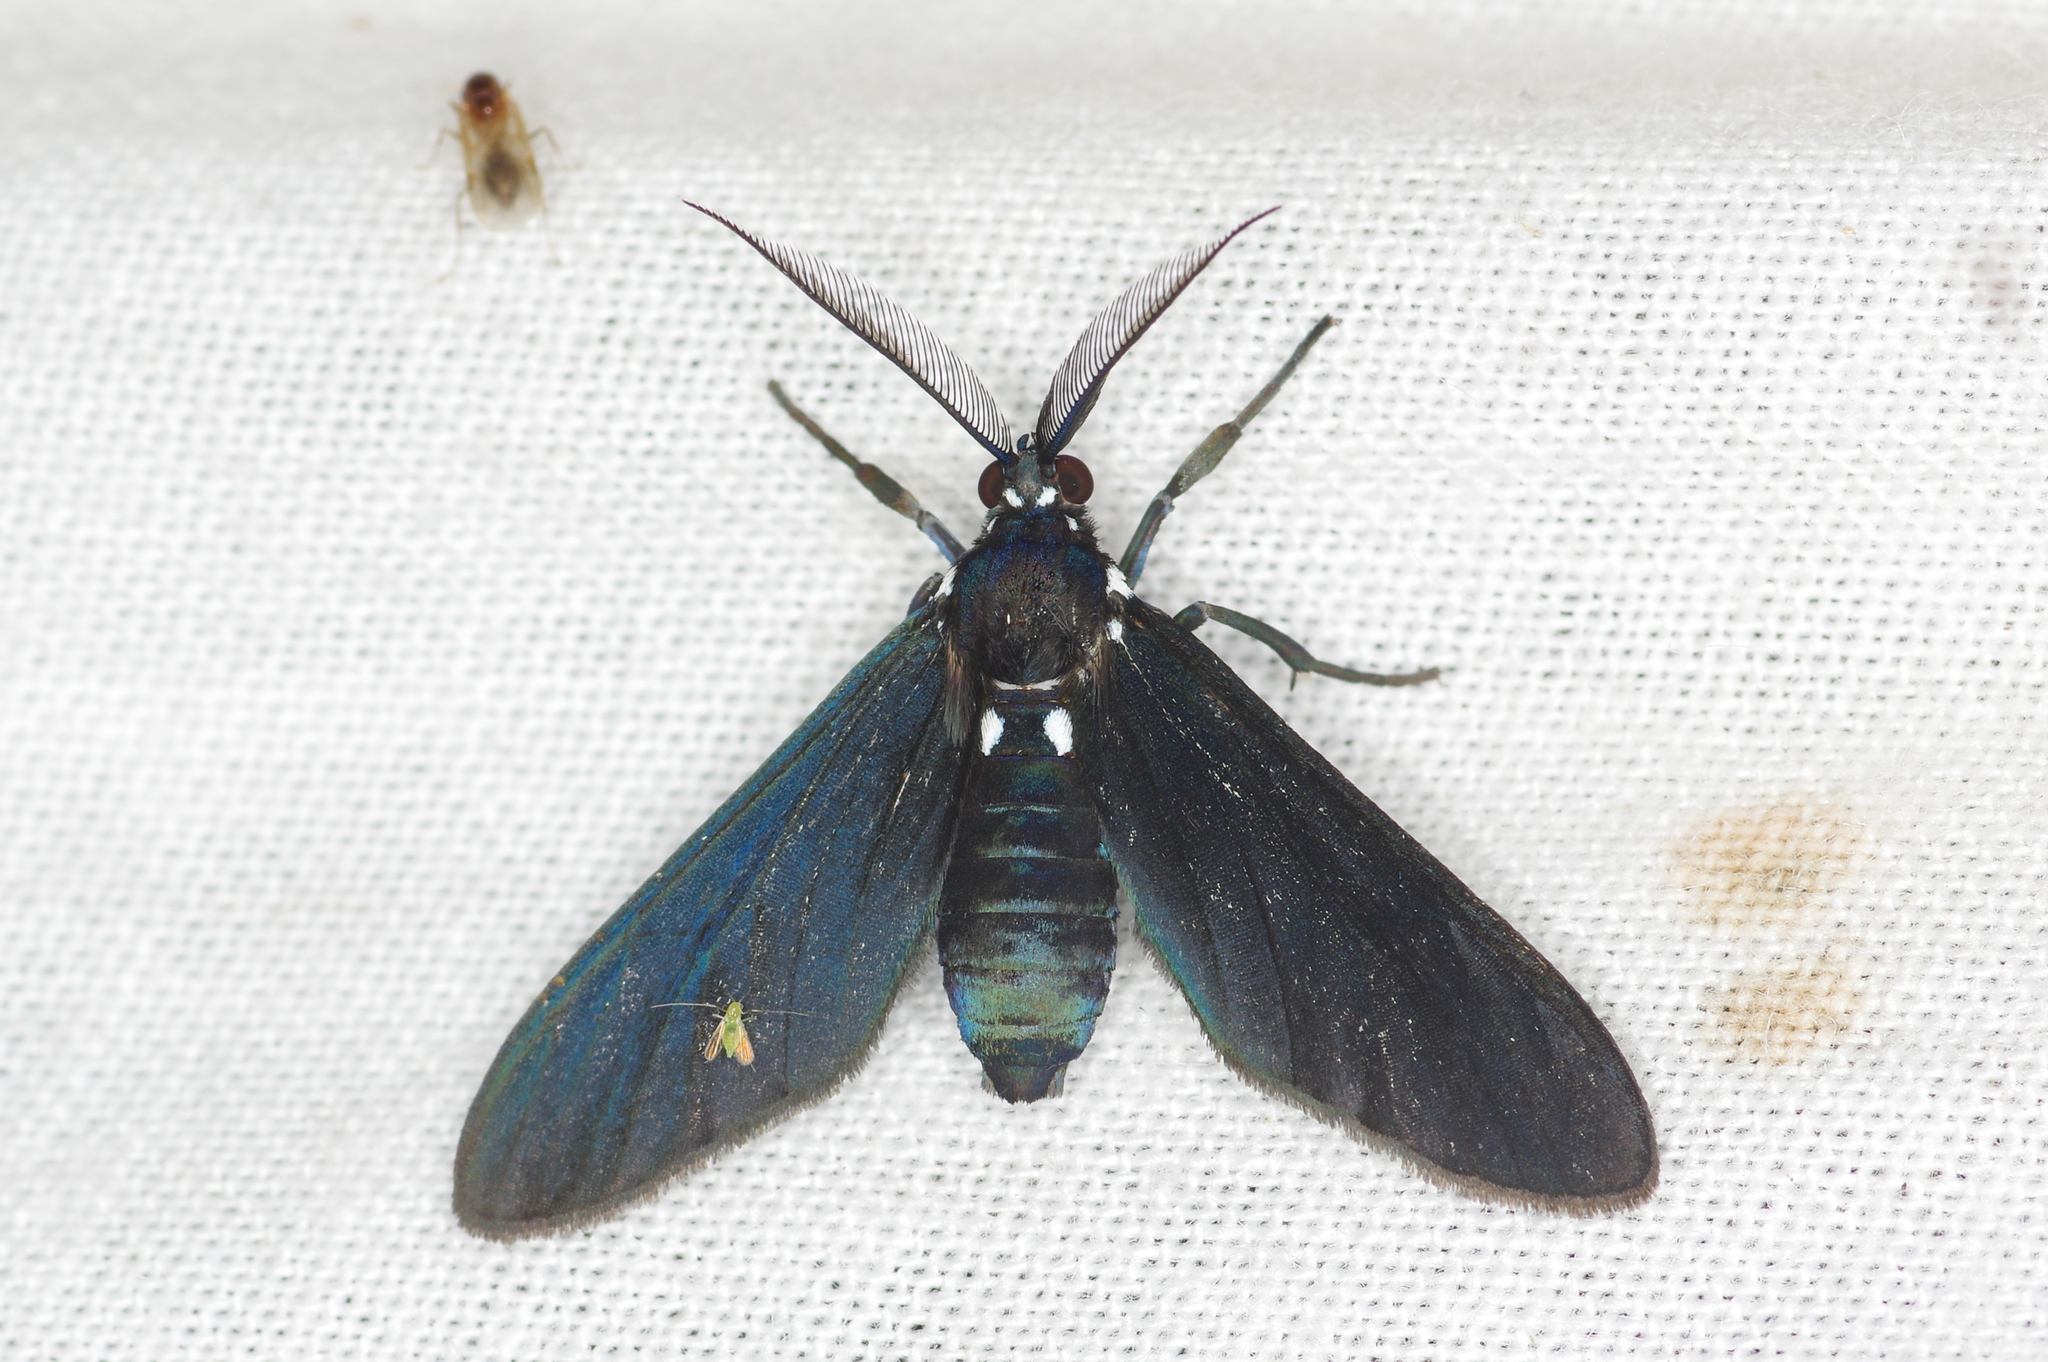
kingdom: Animalia
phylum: Arthropoda
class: Insecta
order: Lepidoptera
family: Erebidae
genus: Psoloptera
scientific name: Psoloptera leucosticta
